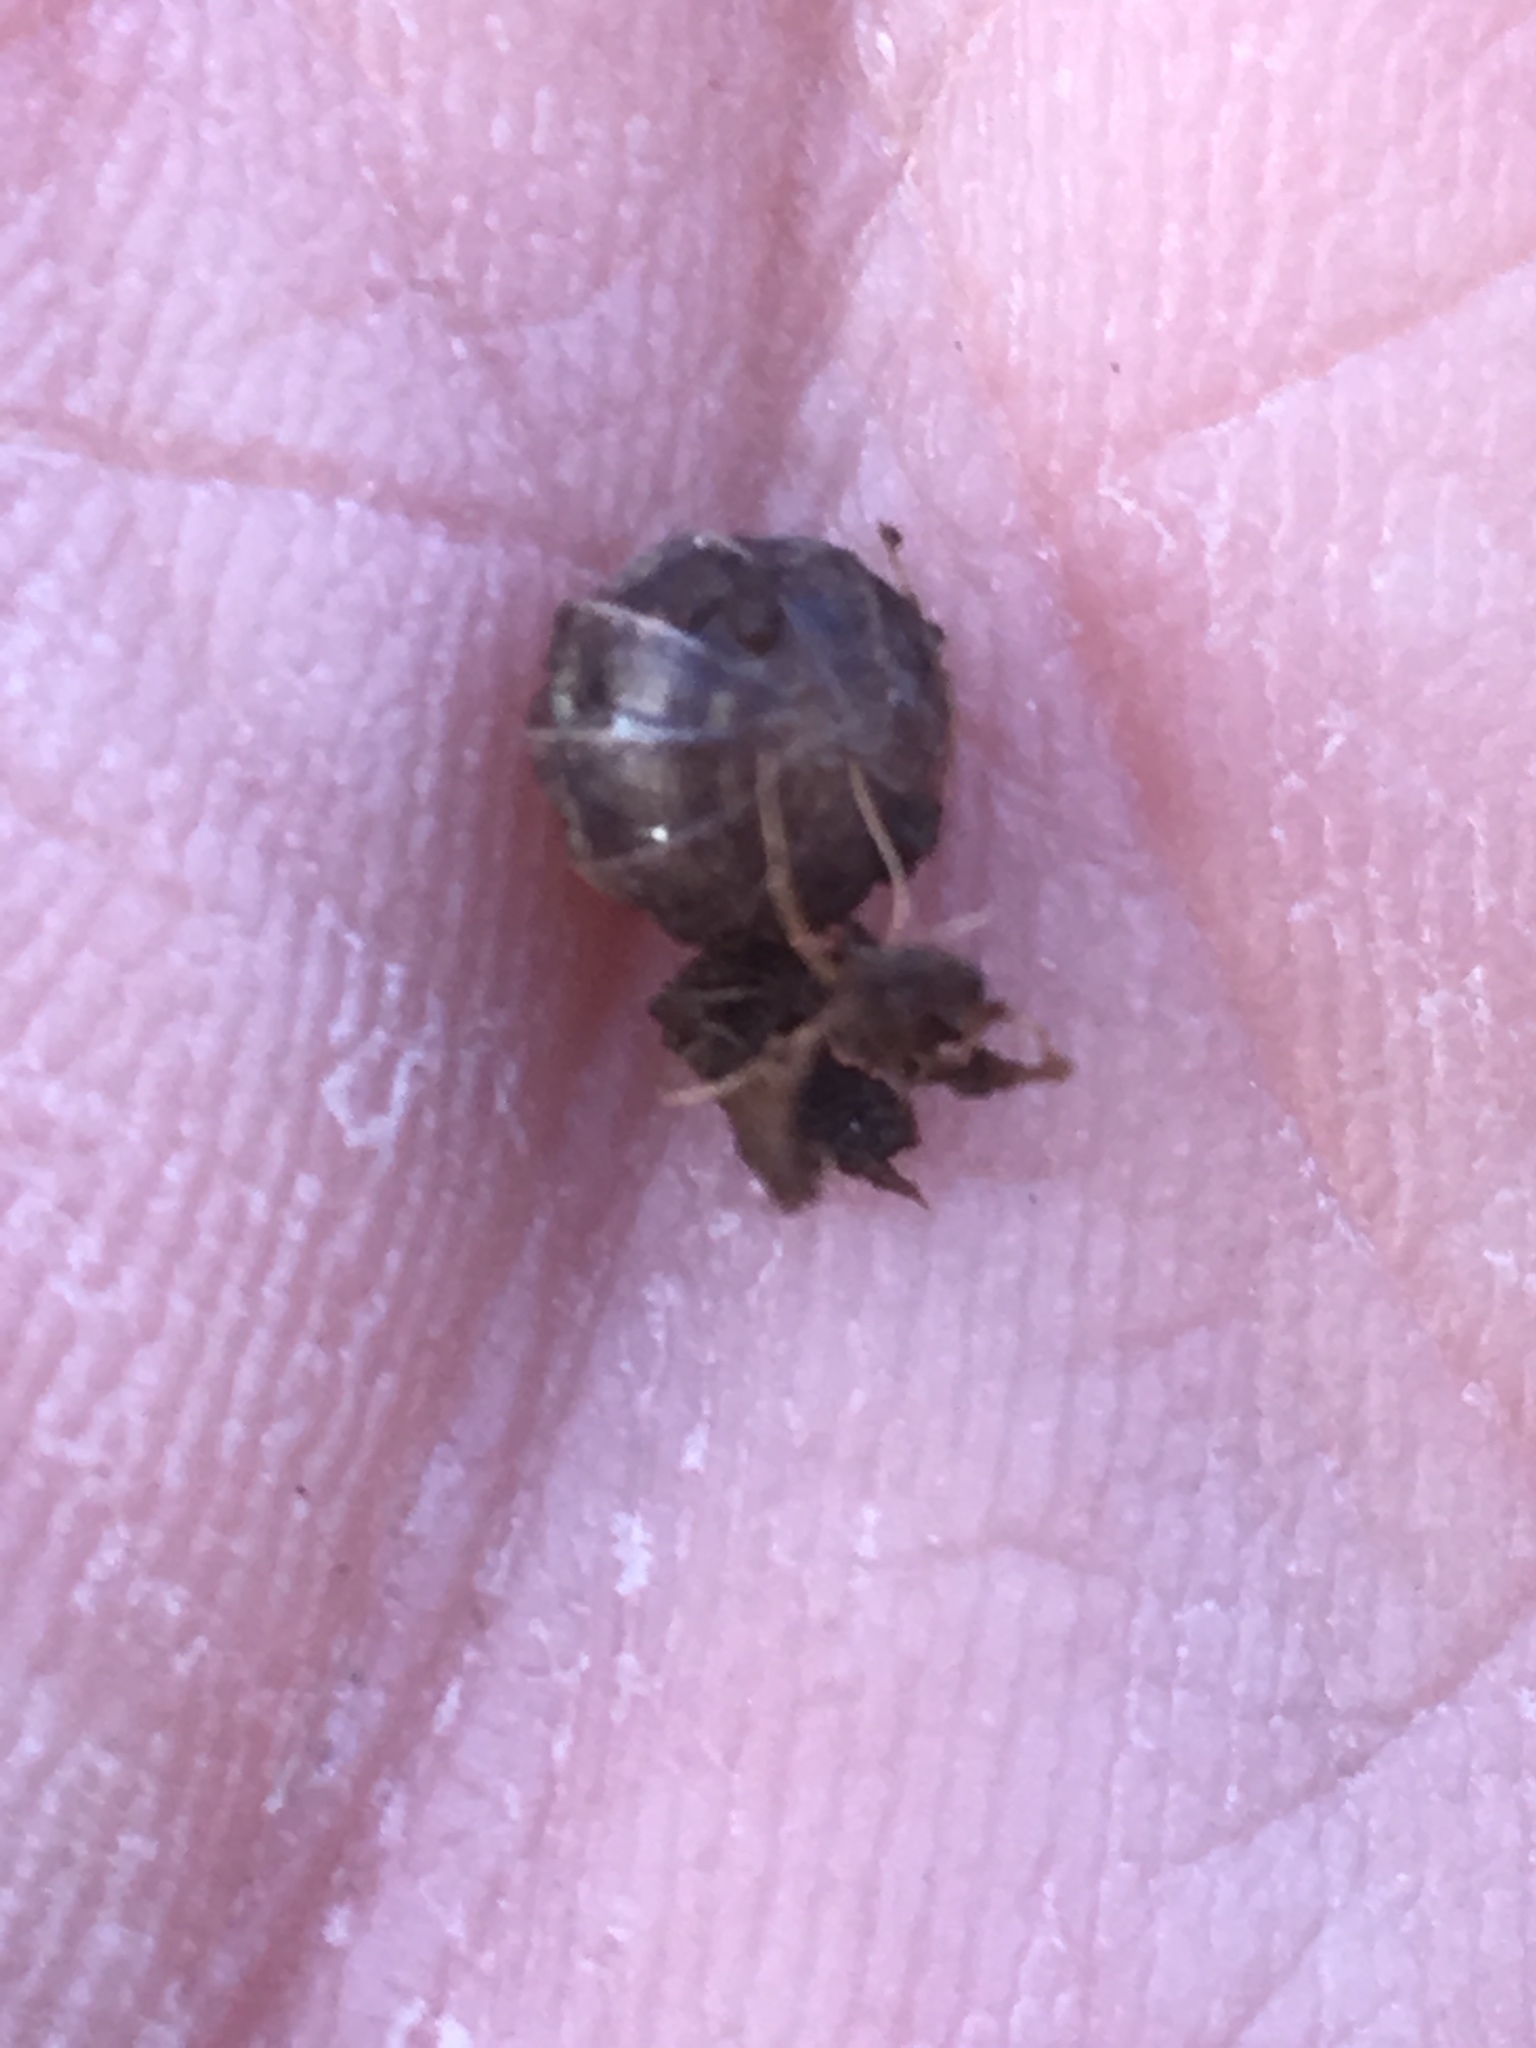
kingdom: Animalia
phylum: Arthropoda
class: Malacostraca
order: Isopoda
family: Armadillidiidae
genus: Armadillidium
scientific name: Armadillidium vulgare
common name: Common pill woodlouse
